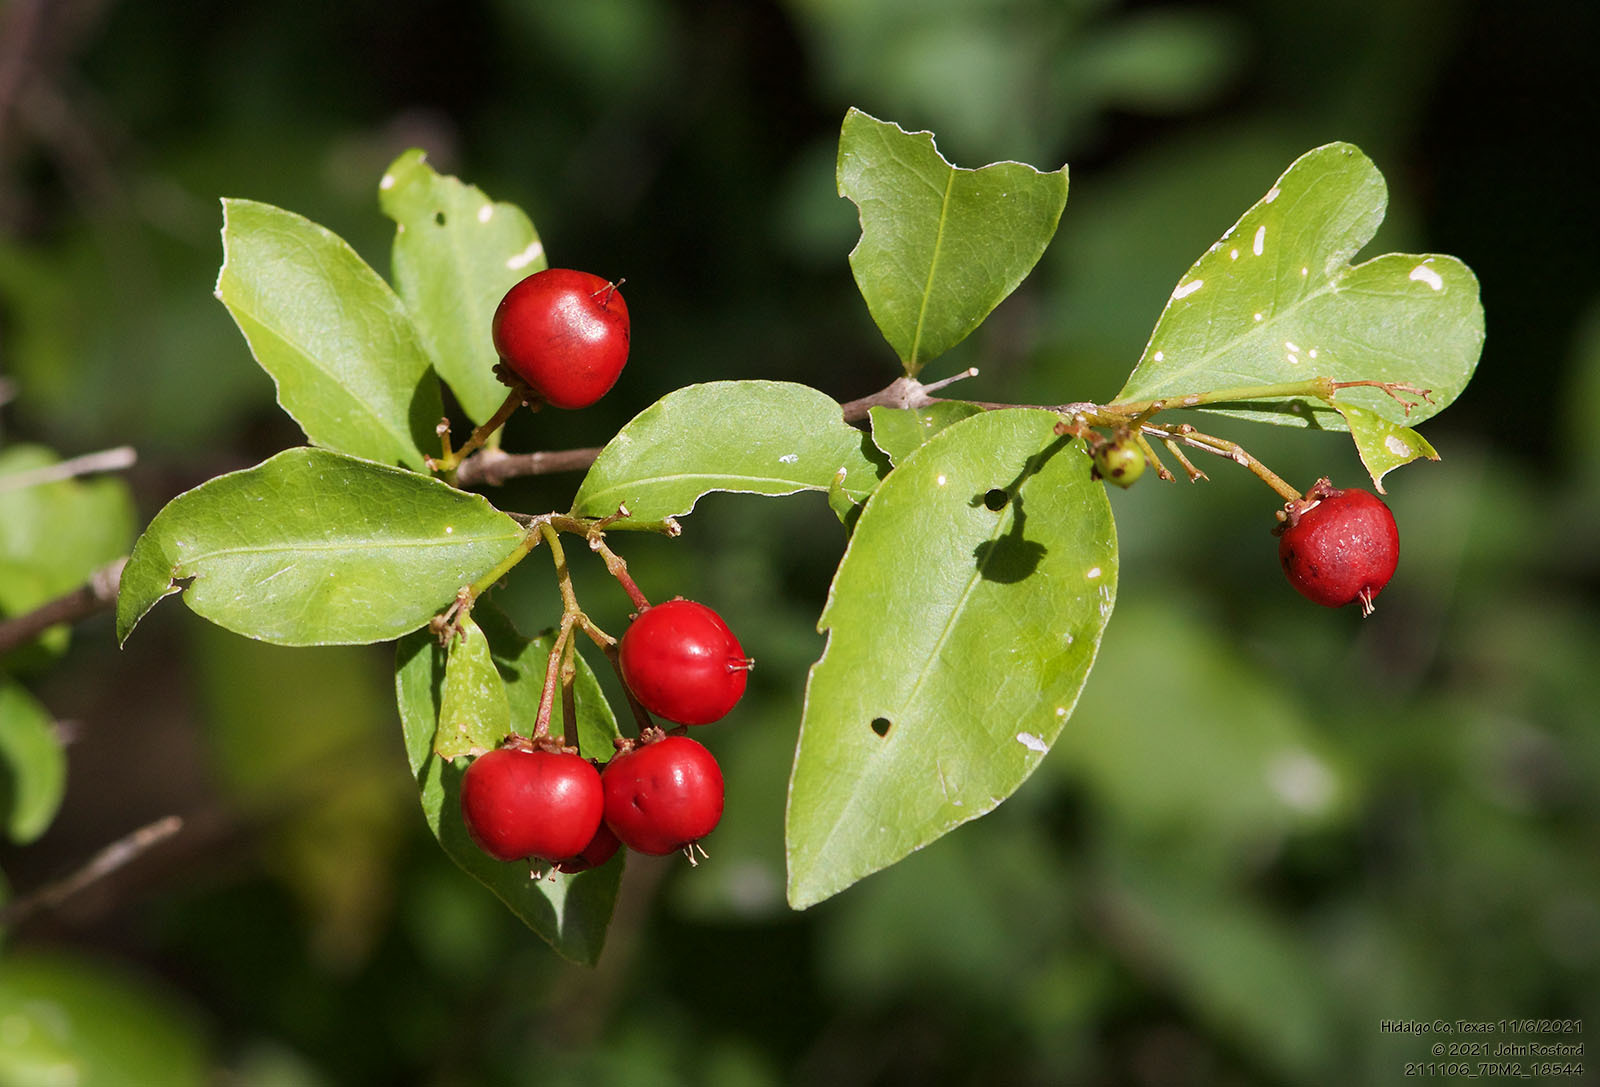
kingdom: Plantae
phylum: Tracheophyta
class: Magnoliopsida
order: Malpighiales
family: Malpighiaceae
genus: Malpighia
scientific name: Malpighia glabra
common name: Barbados cherry
